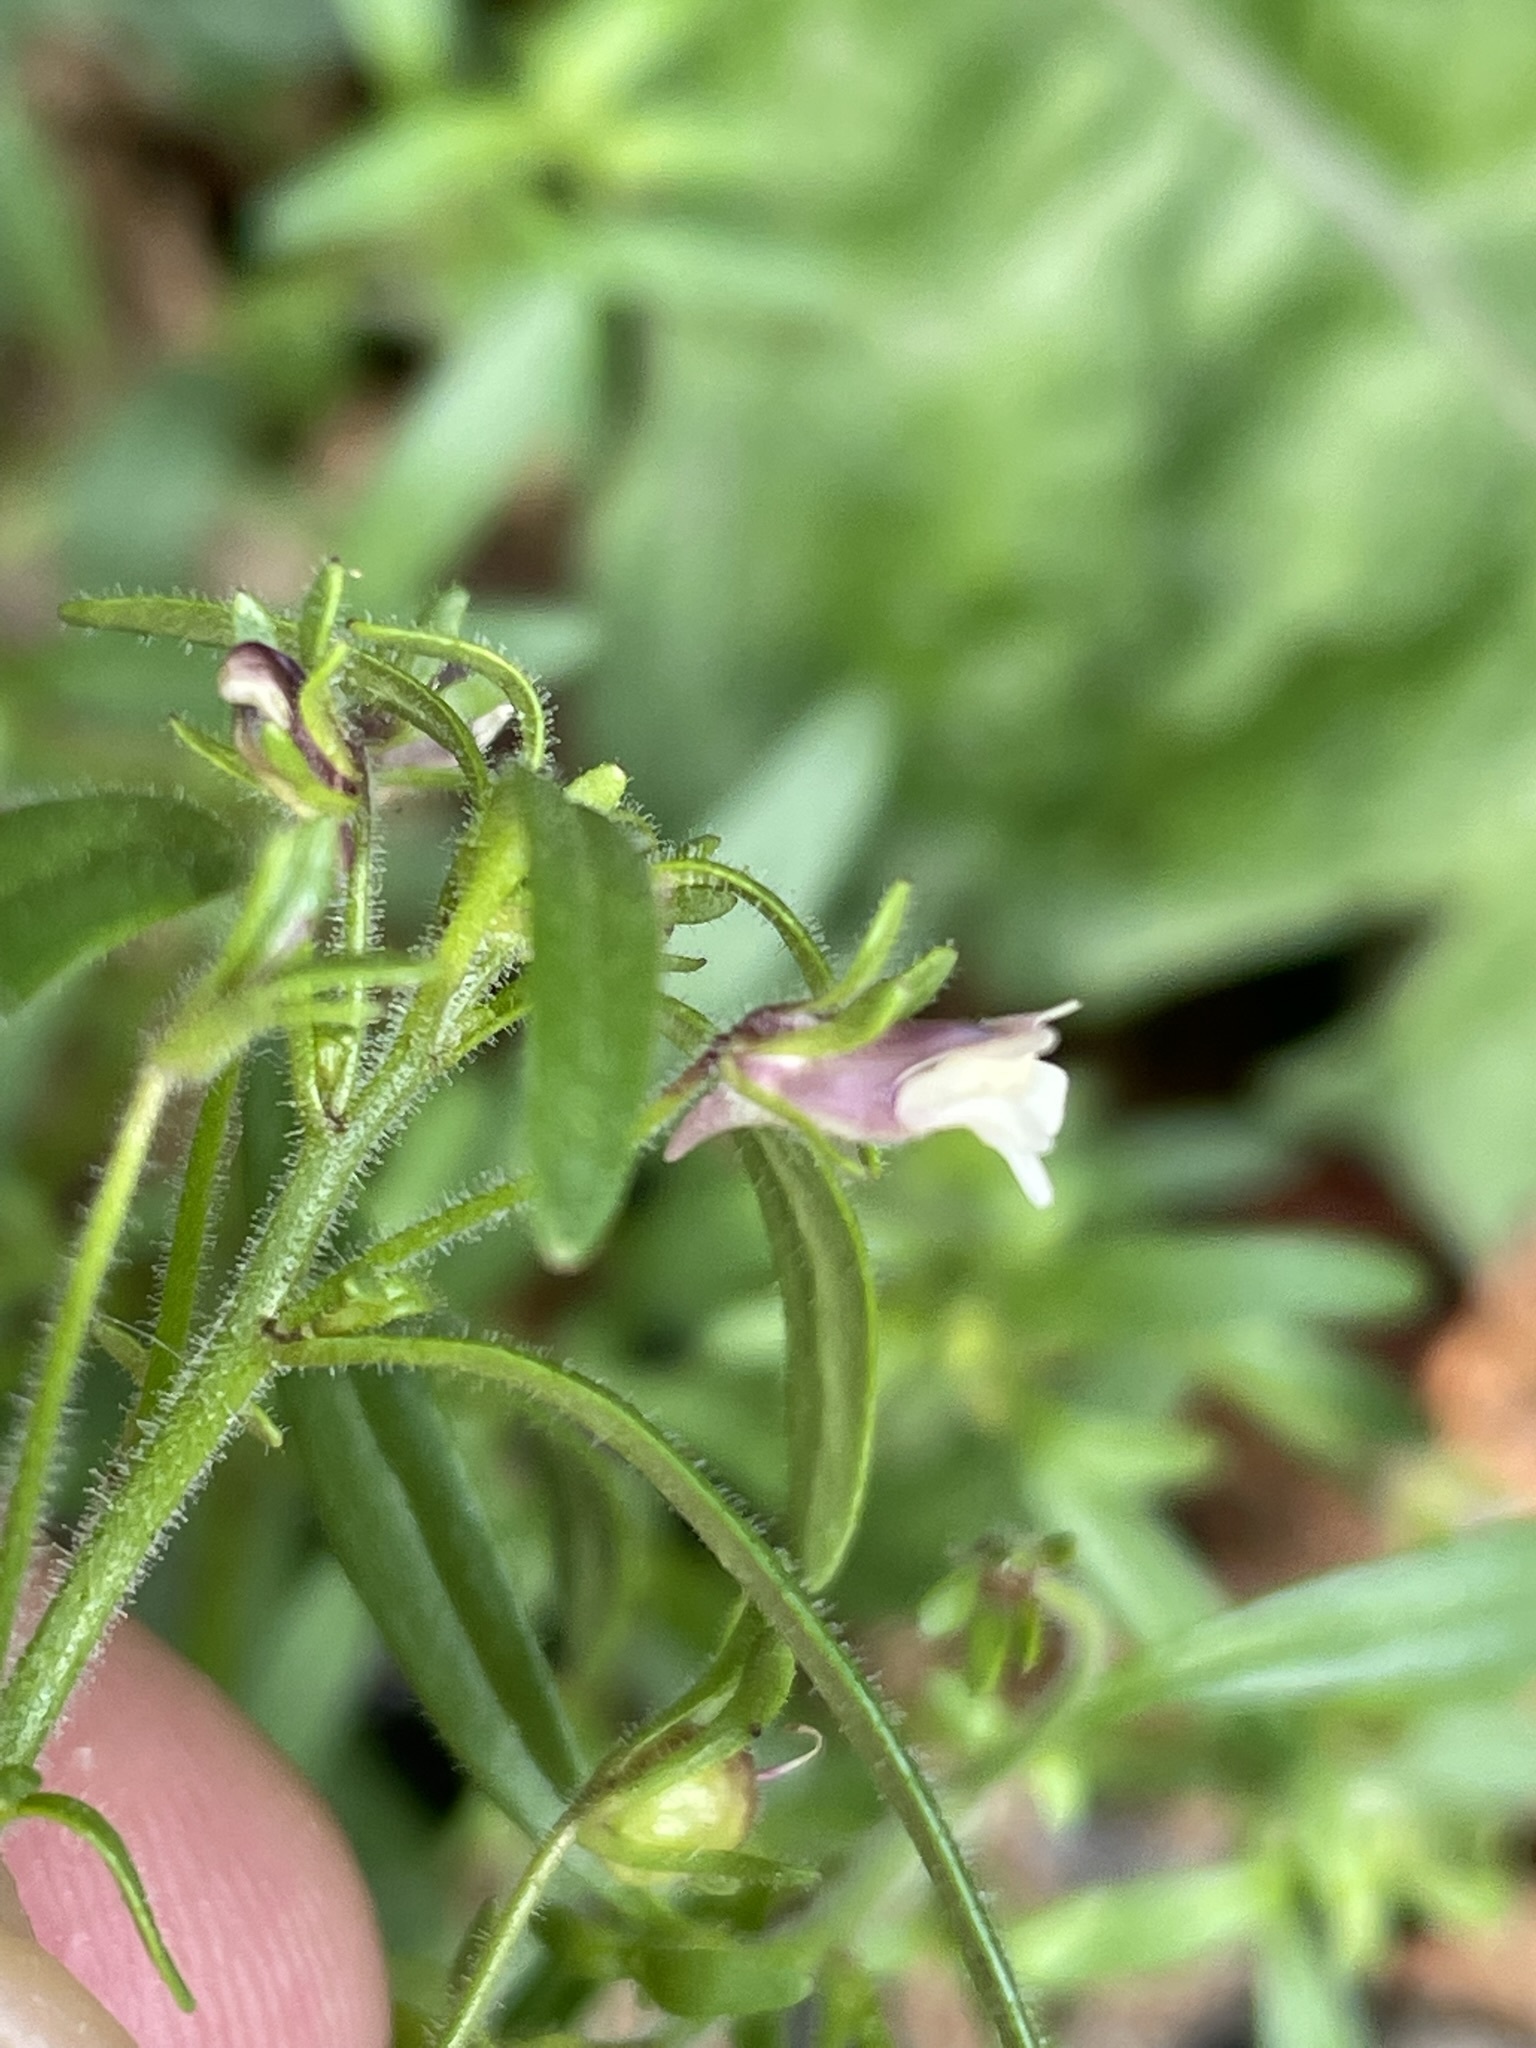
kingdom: Plantae
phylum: Tracheophyta
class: Magnoliopsida
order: Lamiales
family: Plantaginaceae
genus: Chaenorhinum
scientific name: Chaenorhinum minus
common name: Dwarf snapdragon
